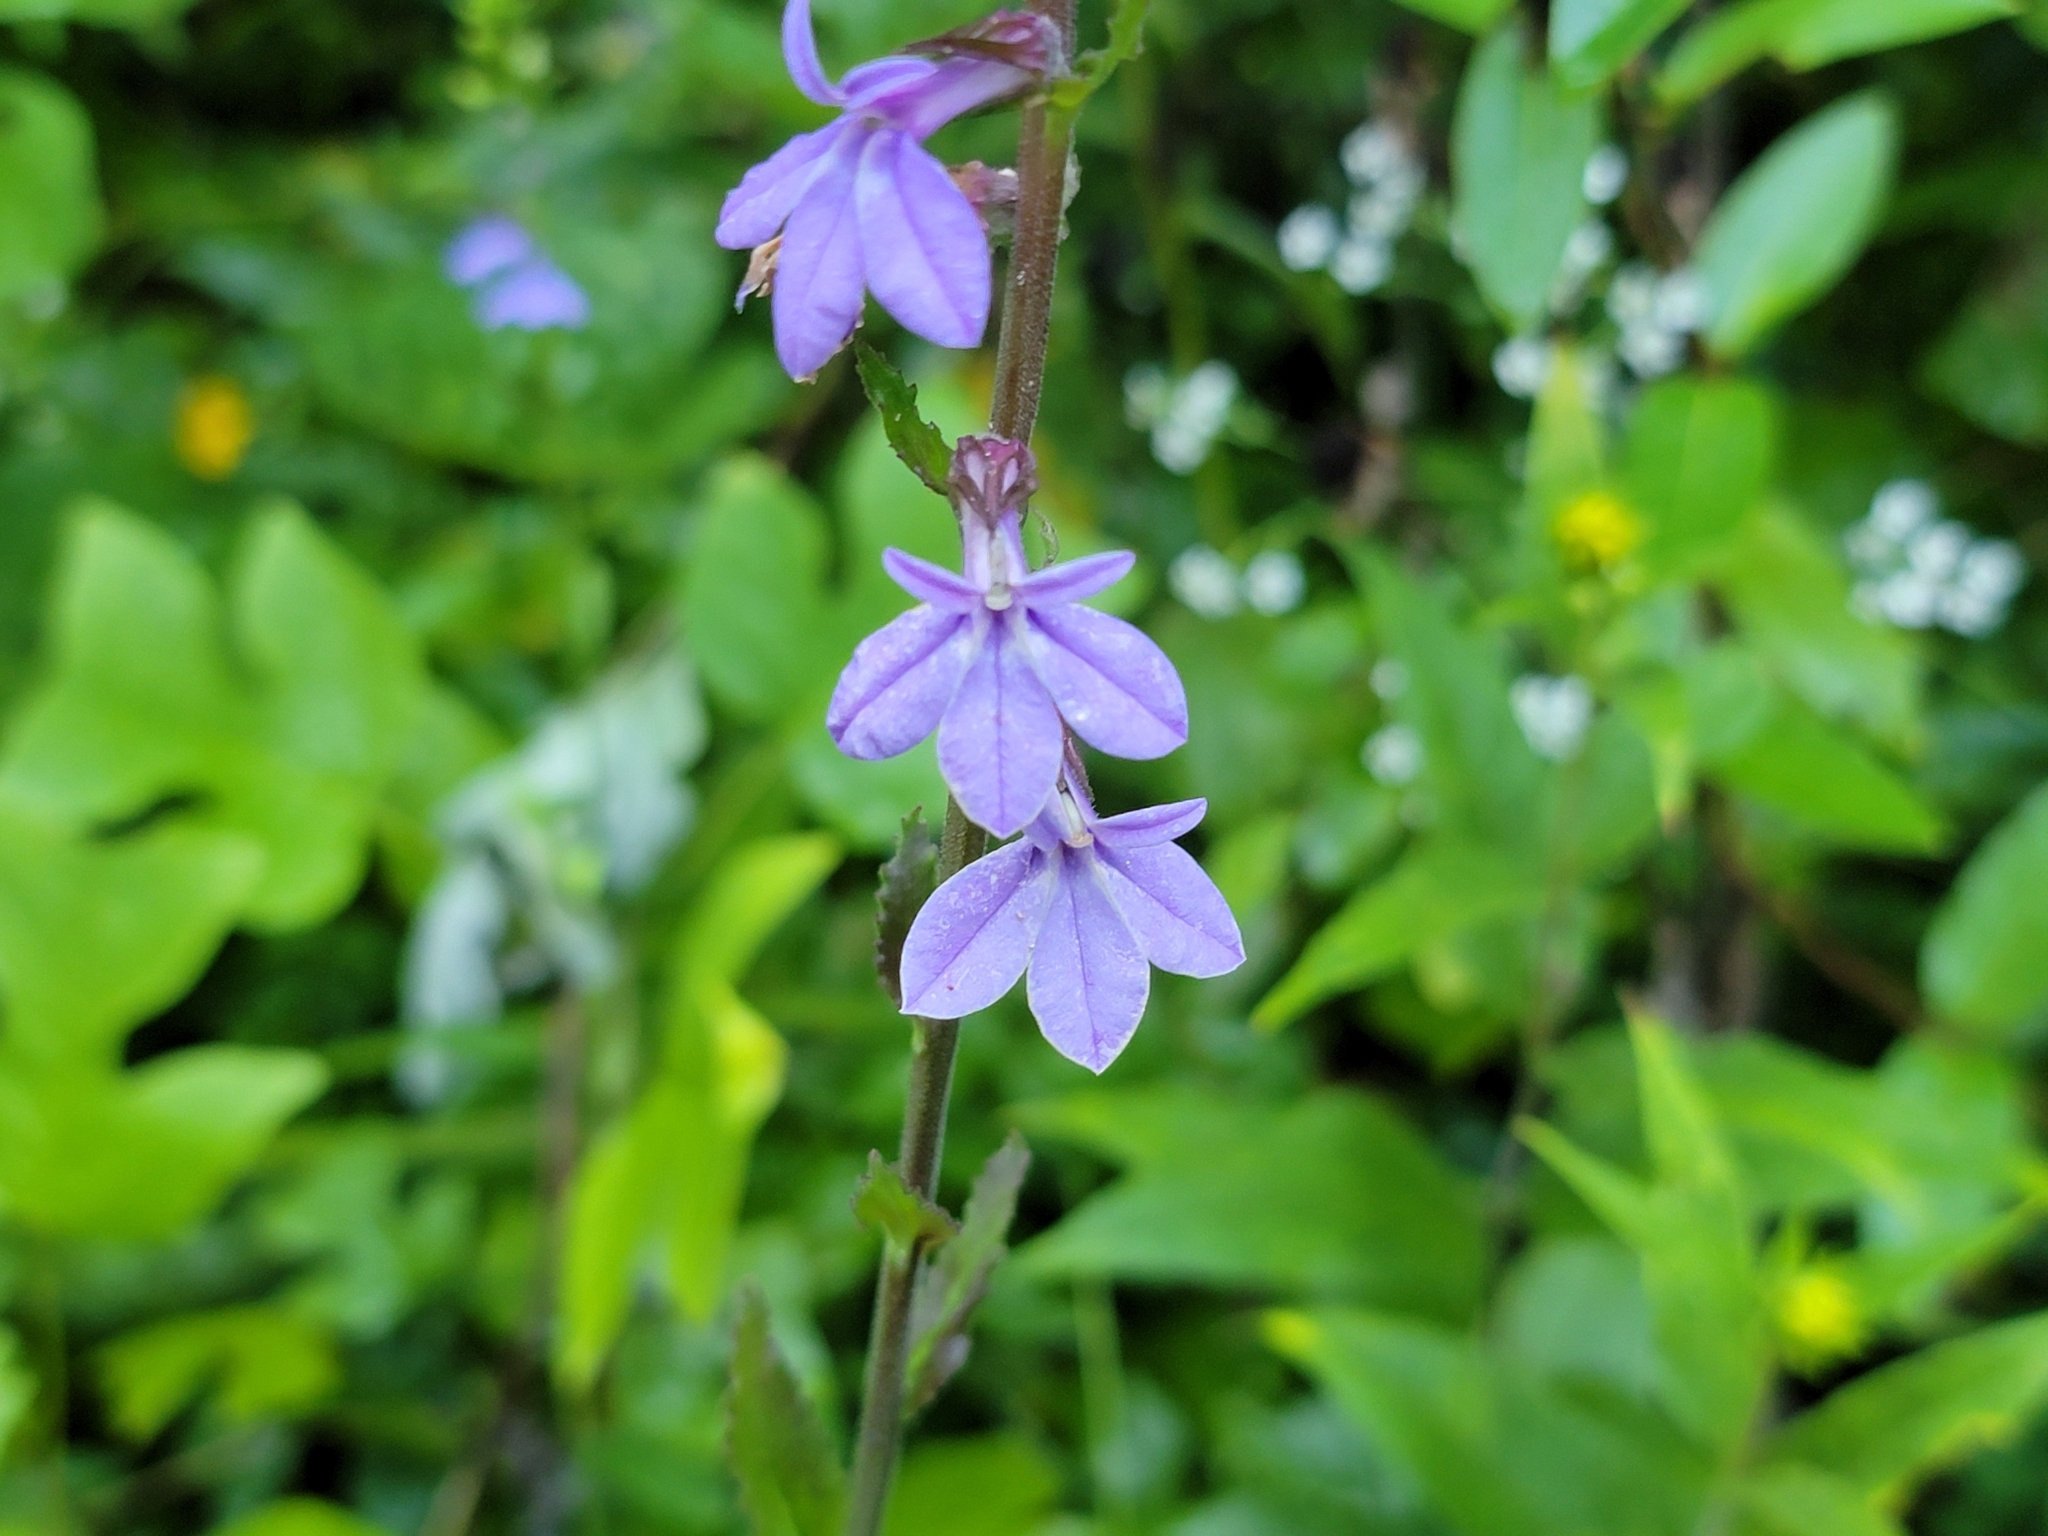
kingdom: Plantae
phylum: Tracheophyta
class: Magnoliopsida
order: Asterales
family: Campanulaceae
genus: Lobelia
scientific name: Lobelia puberula
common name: Purple dewdrop
